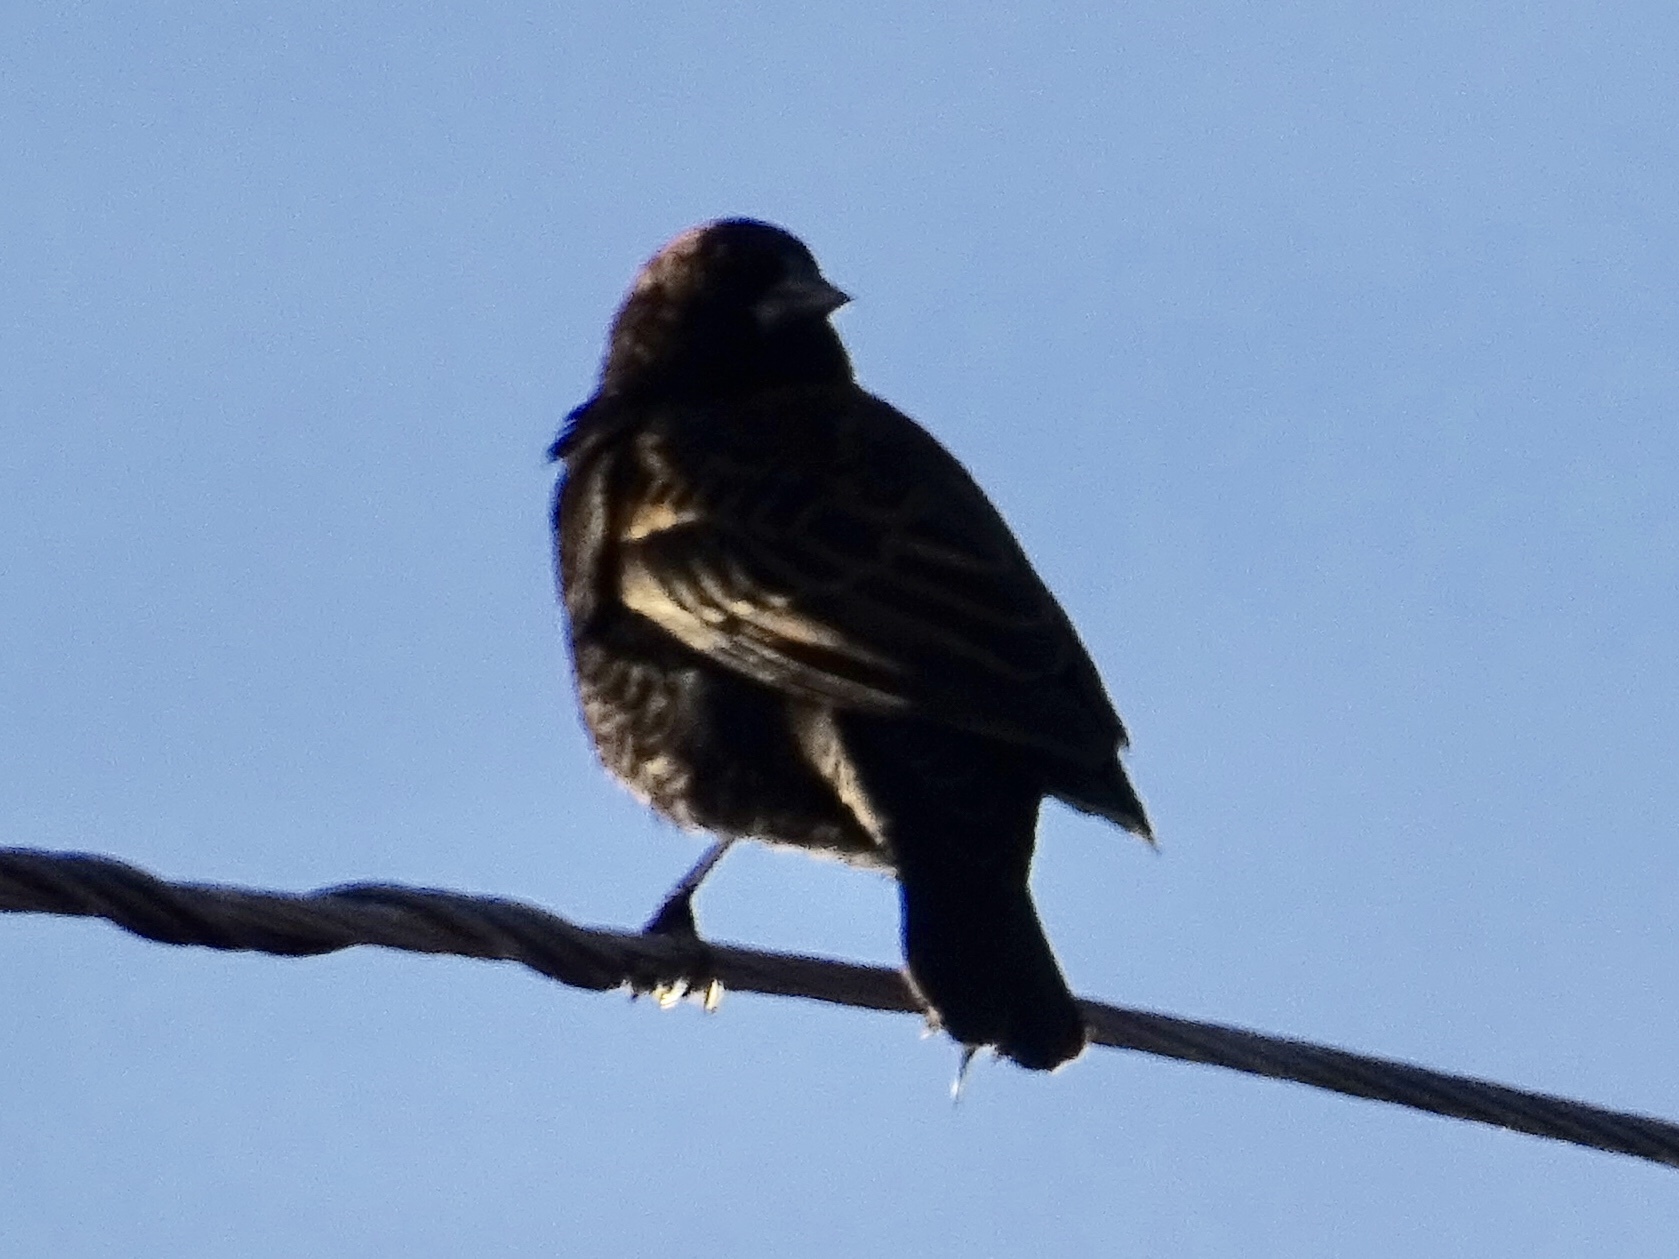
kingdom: Animalia
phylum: Chordata
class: Aves
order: Passeriformes
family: Icteridae
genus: Agelaius
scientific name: Agelaius phoeniceus
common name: Red-winged blackbird
